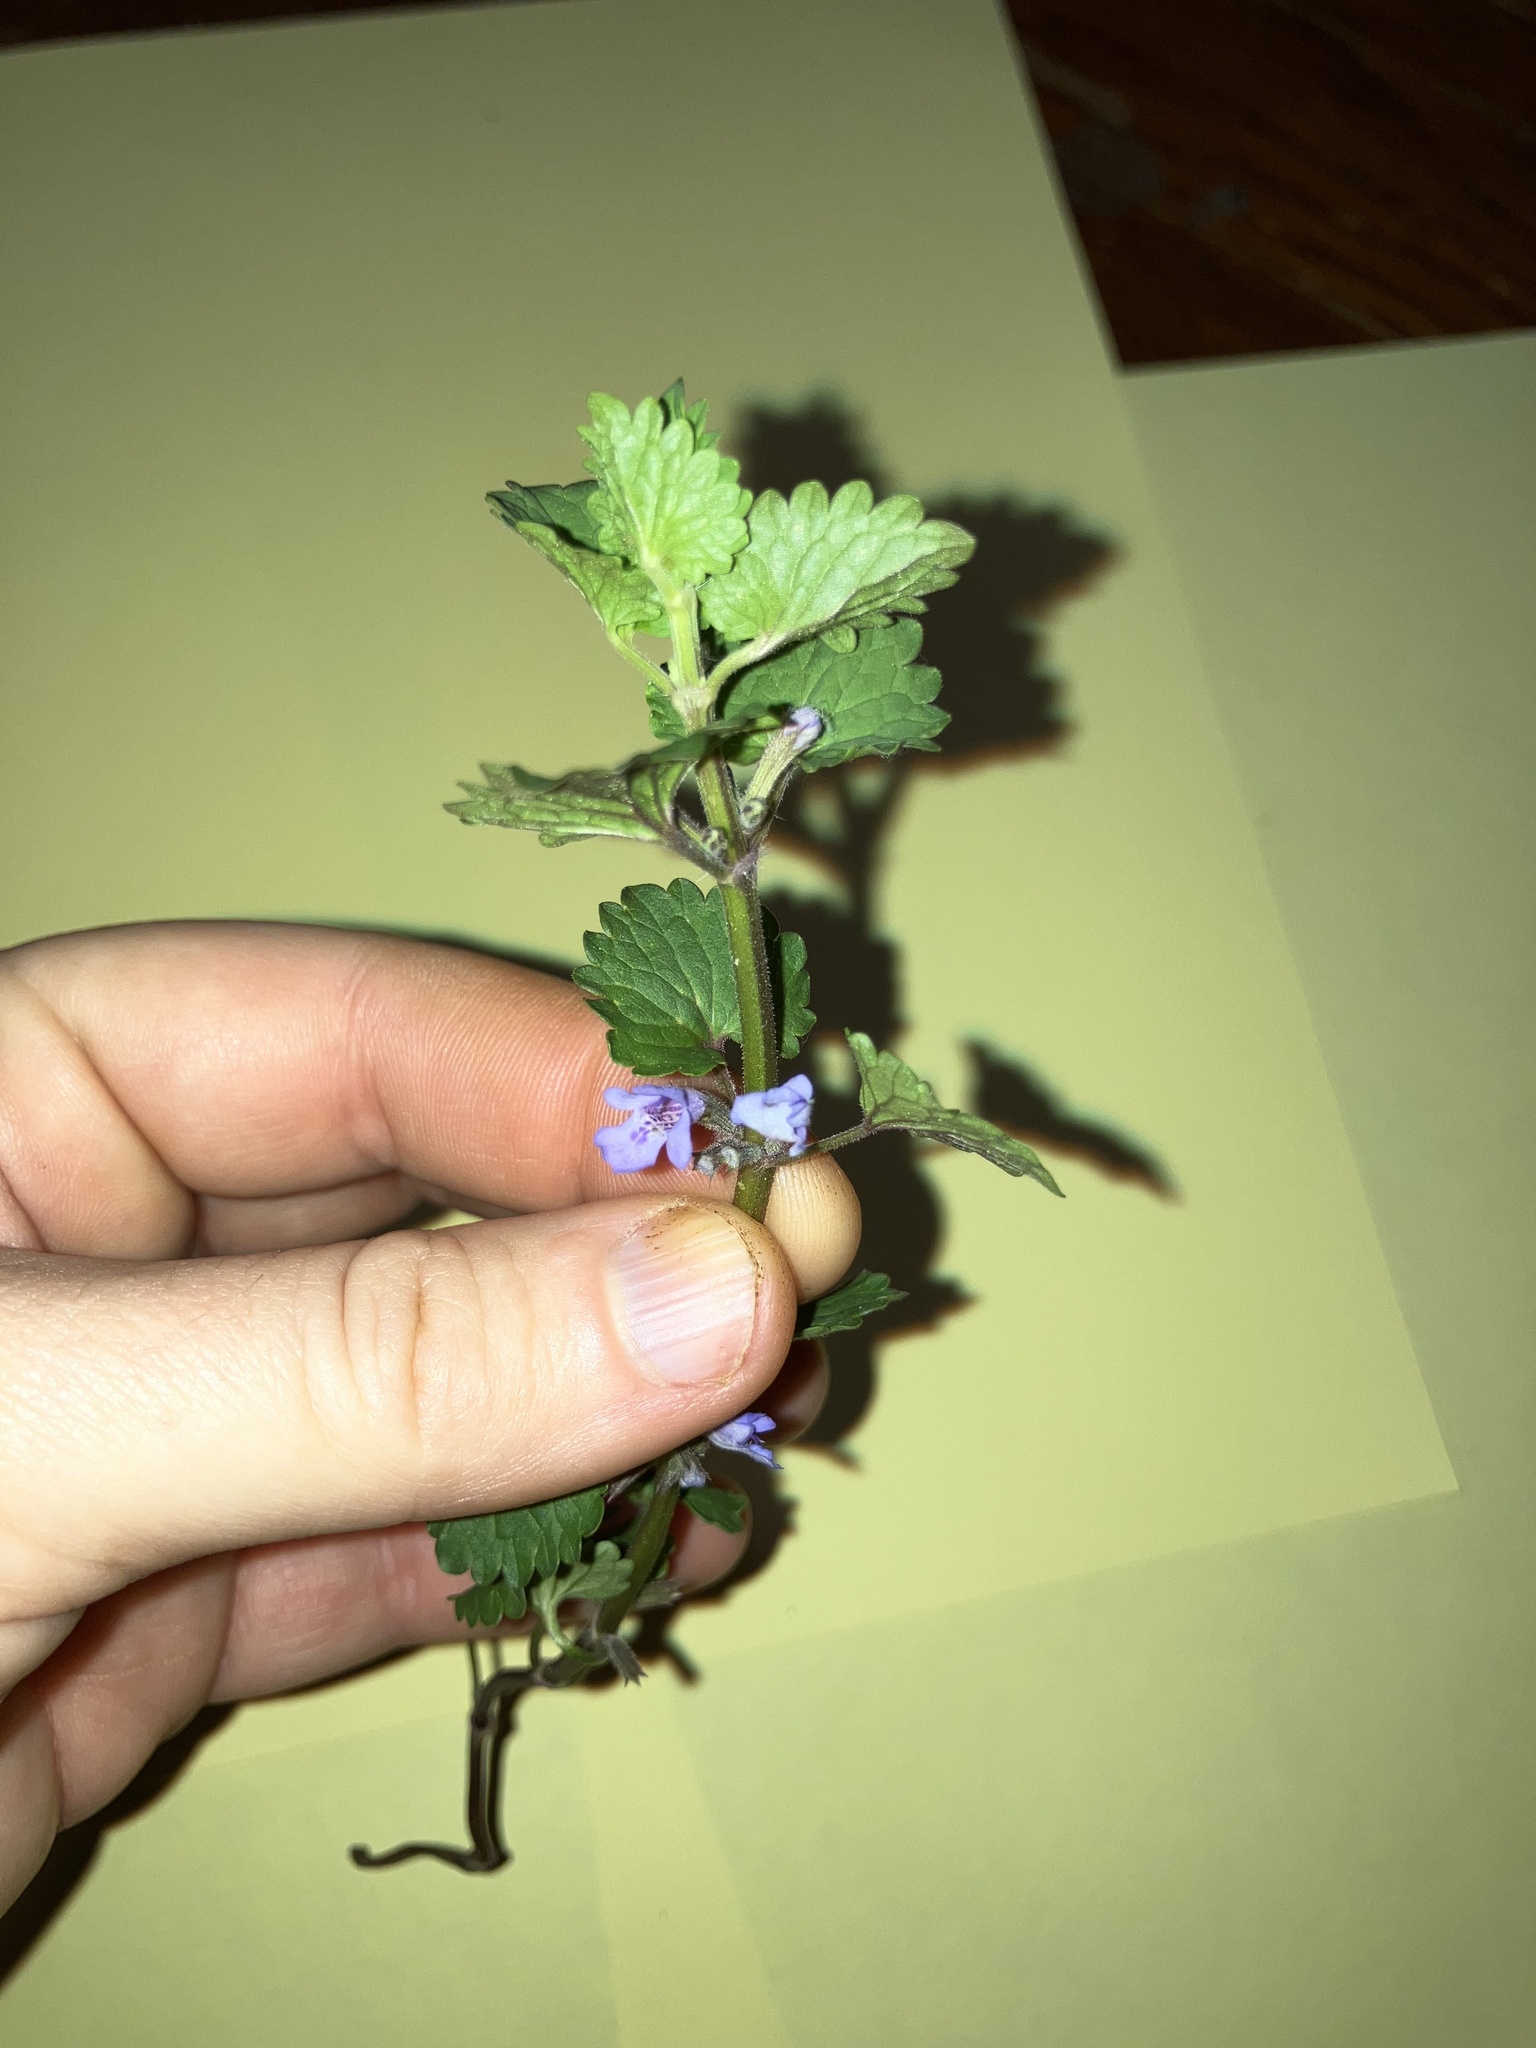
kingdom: Plantae
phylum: Tracheophyta
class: Magnoliopsida
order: Lamiales
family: Lamiaceae
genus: Glechoma
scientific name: Glechoma hederacea
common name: Ground ivy
